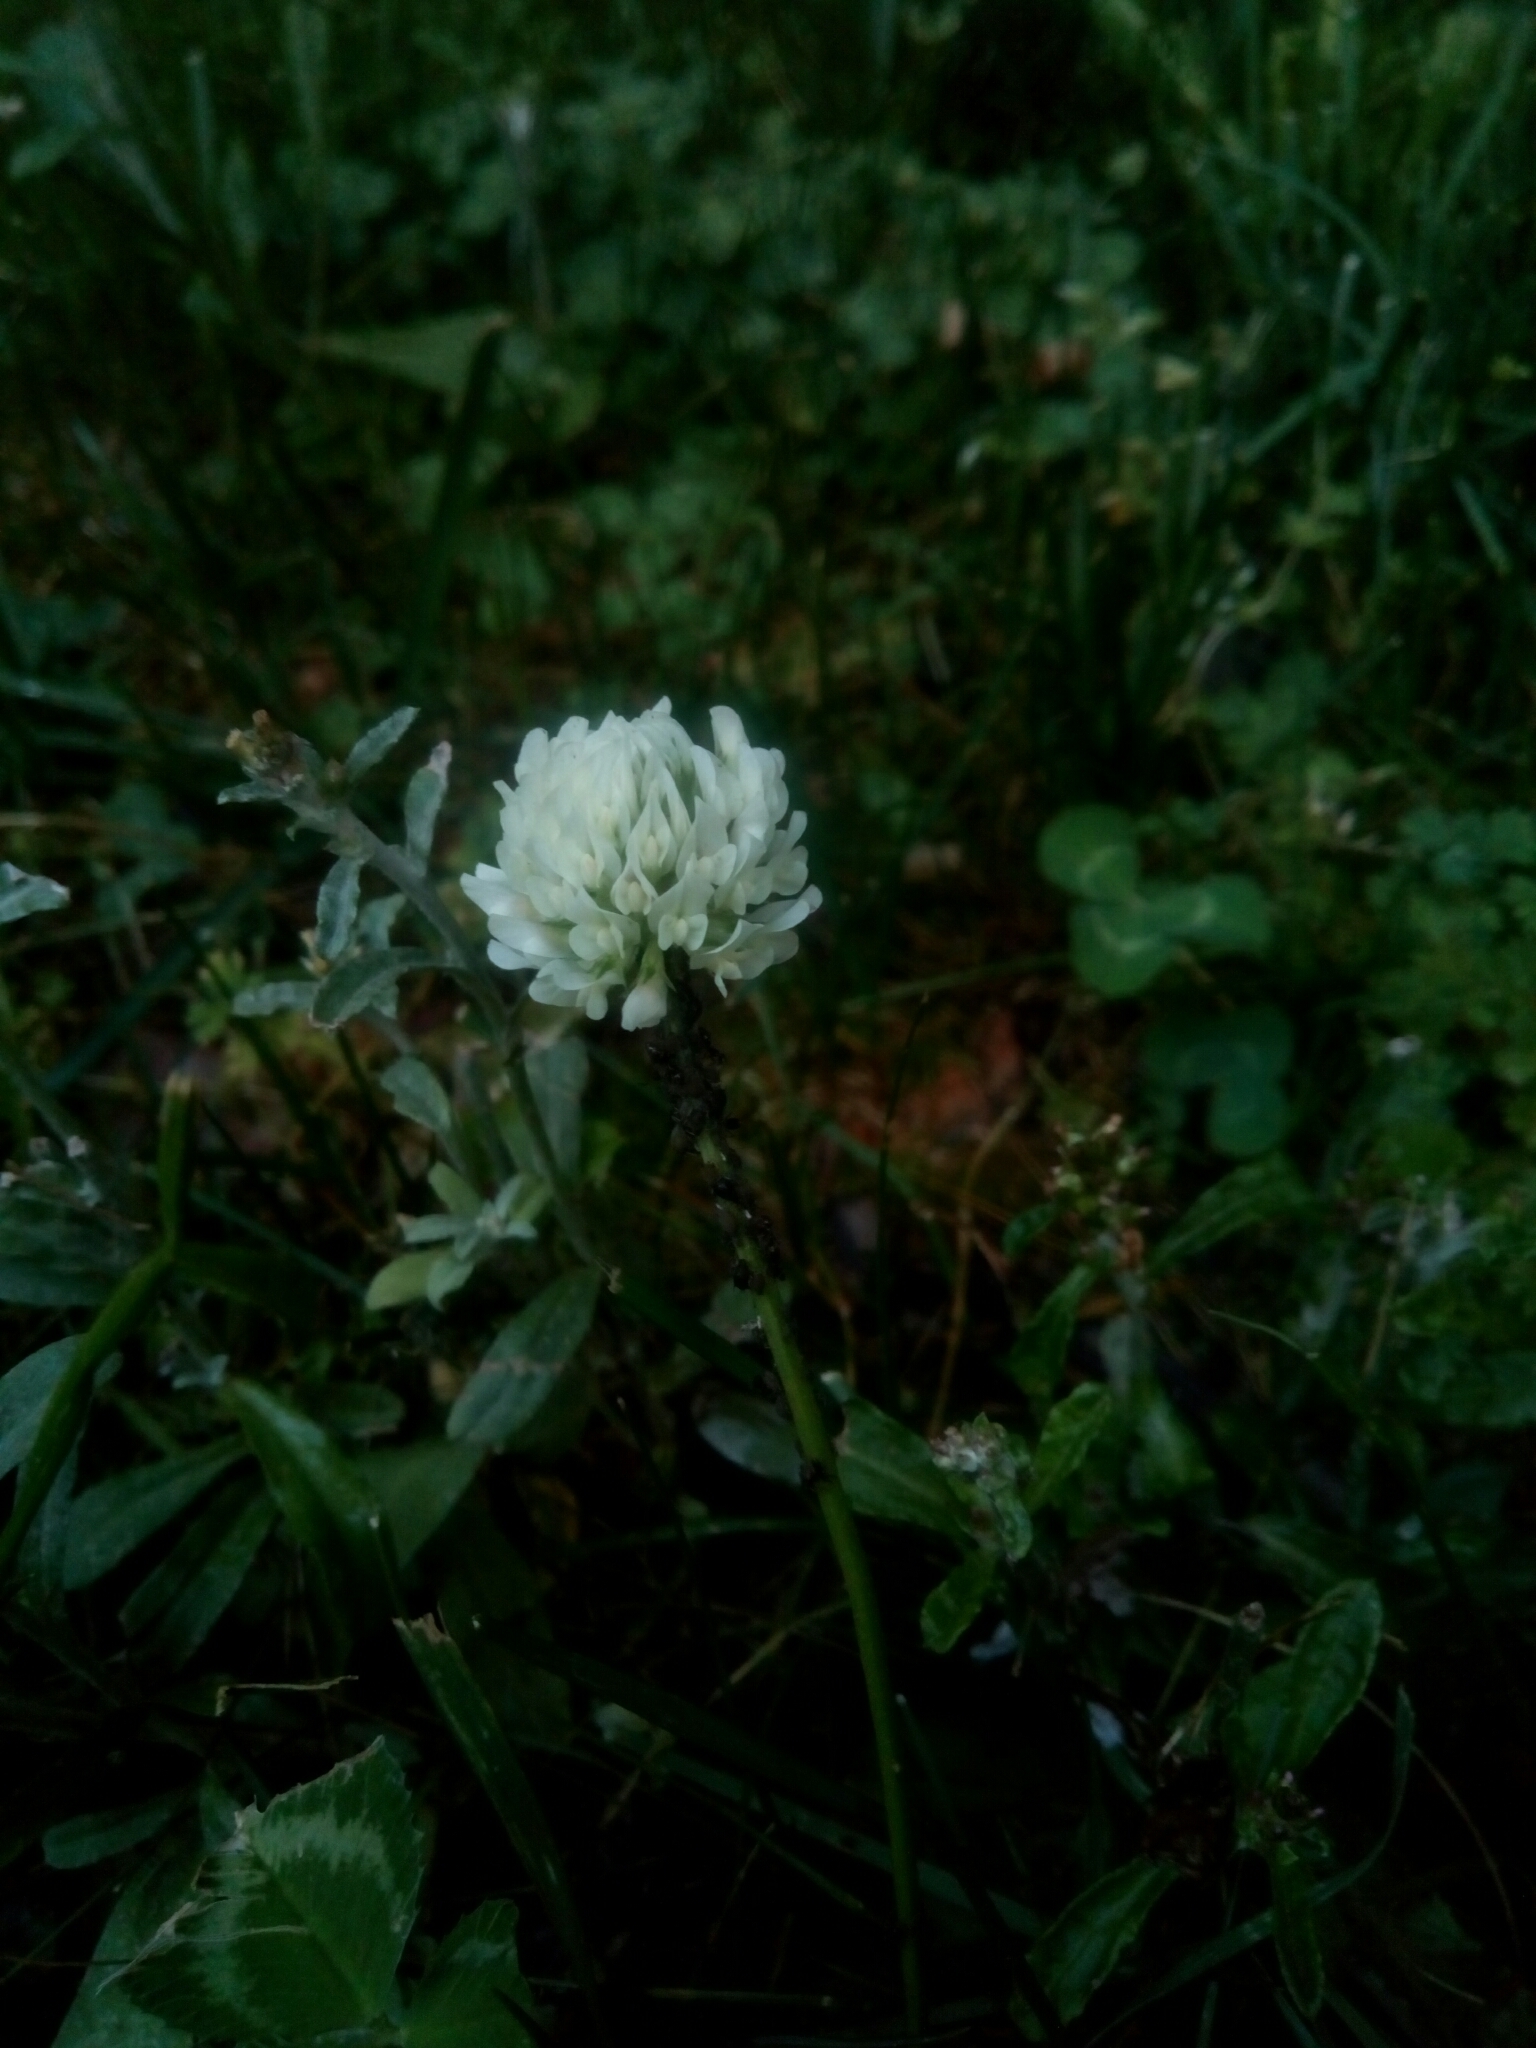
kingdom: Plantae
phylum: Tracheophyta
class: Magnoliopsida
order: Fabales
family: Fabaceae
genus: Trifolium
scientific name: Trifolium repens
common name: White clover
